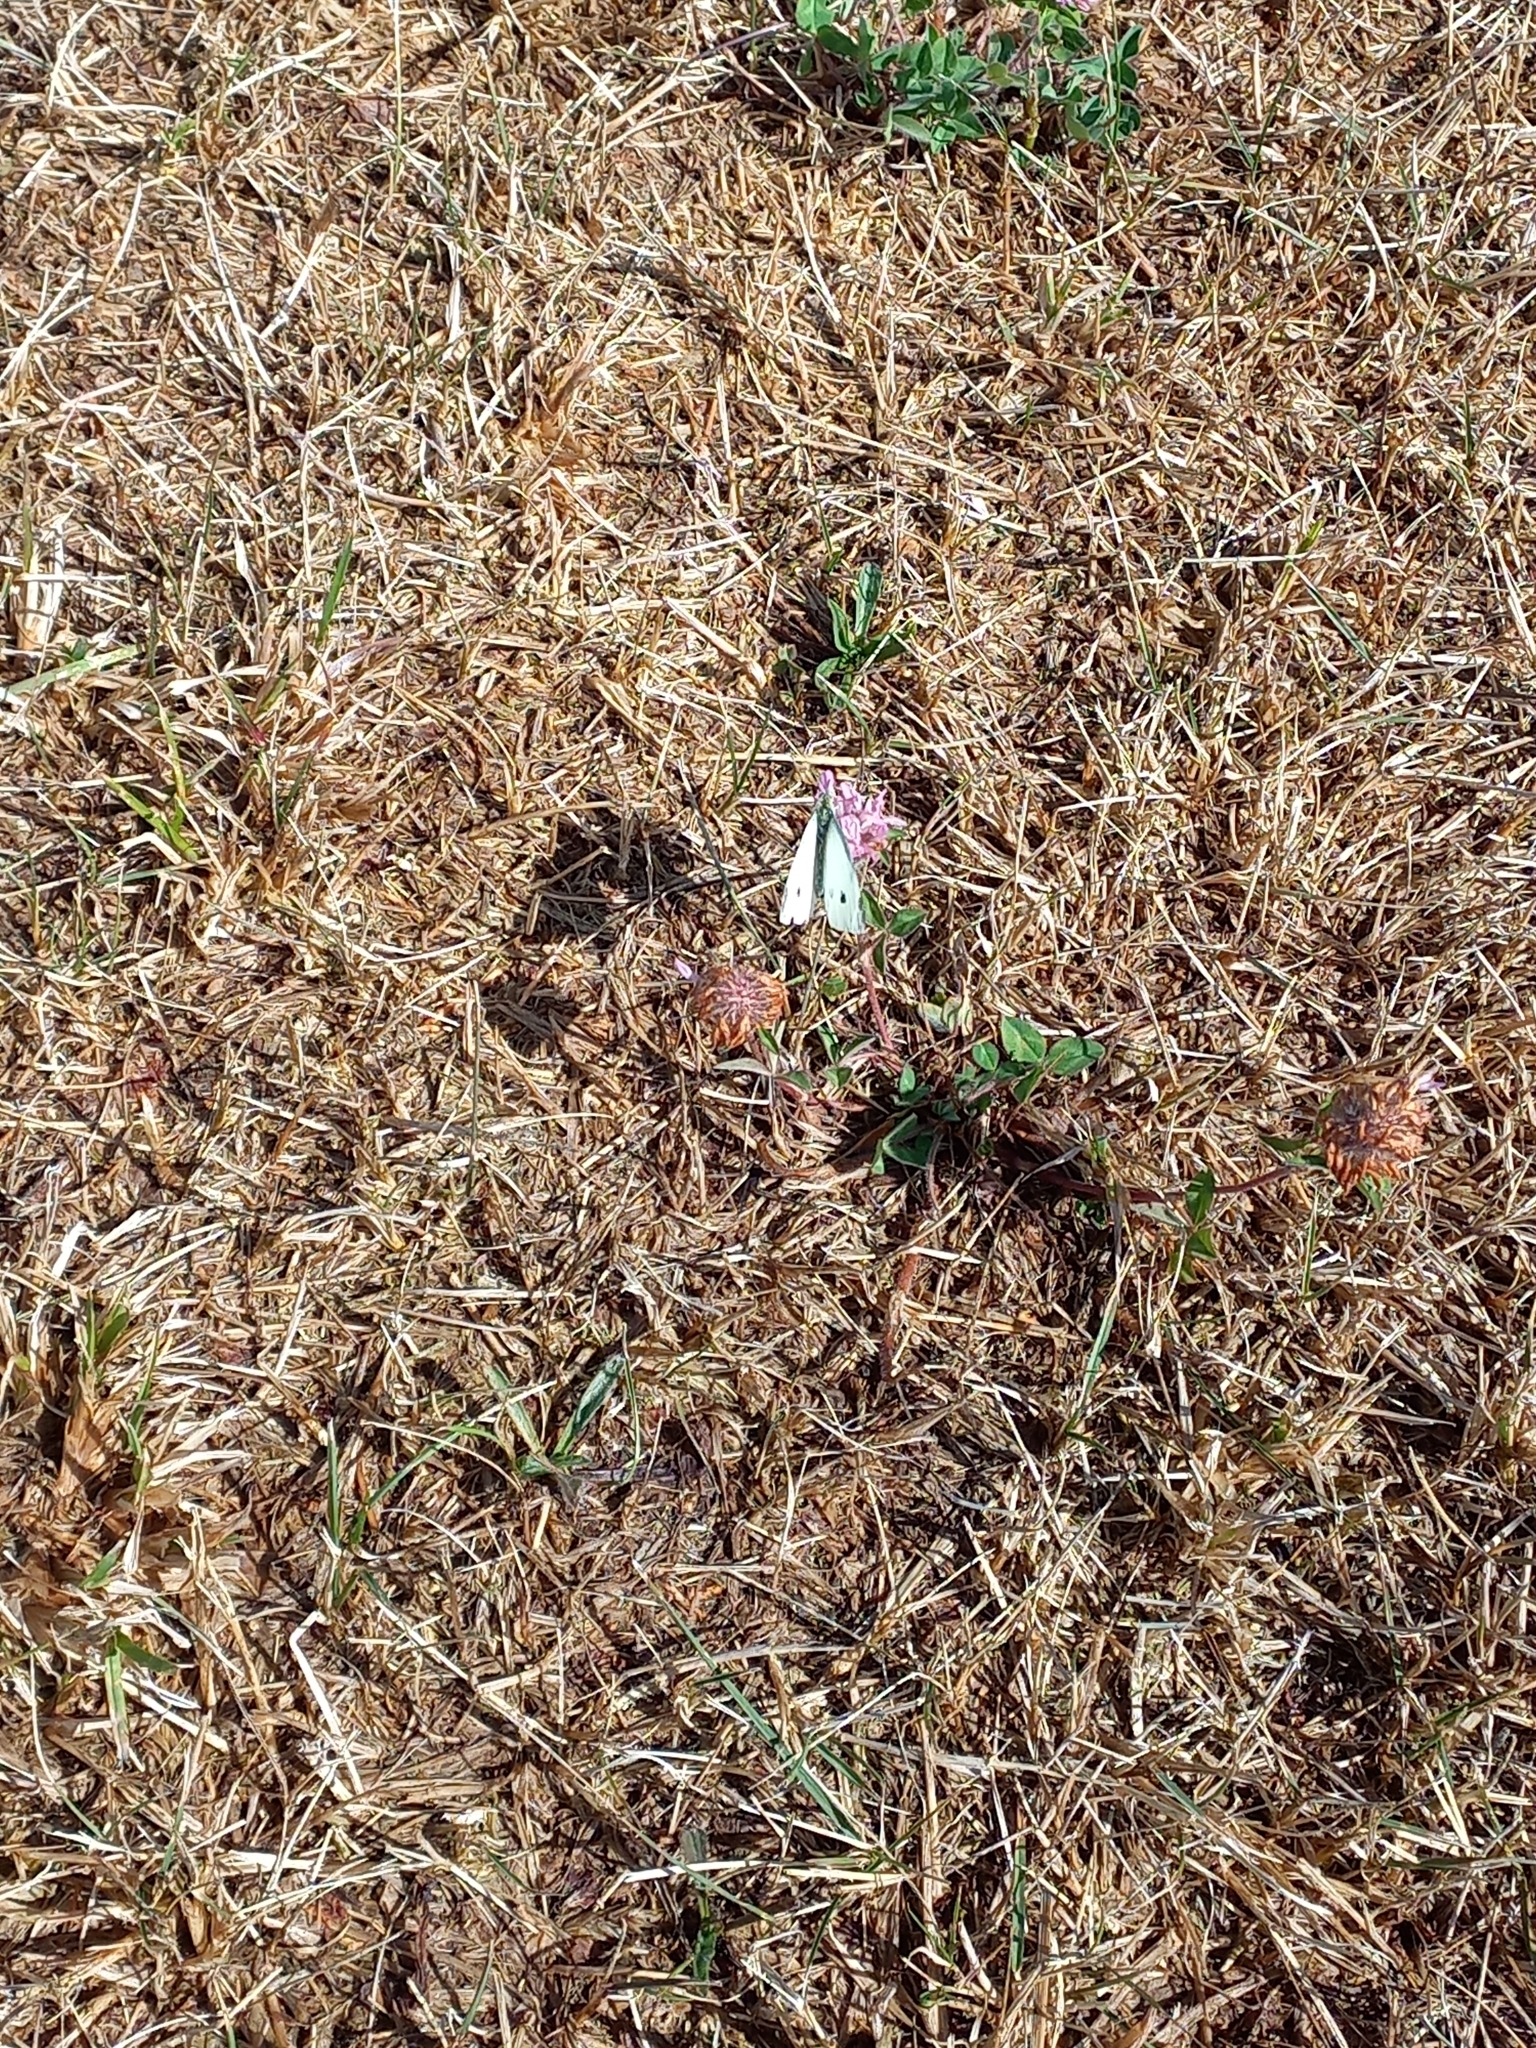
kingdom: Animalia
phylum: Arthropoda
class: Insecta
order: Lepidoptera
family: Pieridae
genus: Pieris
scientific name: Pieris rapae
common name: Small white
